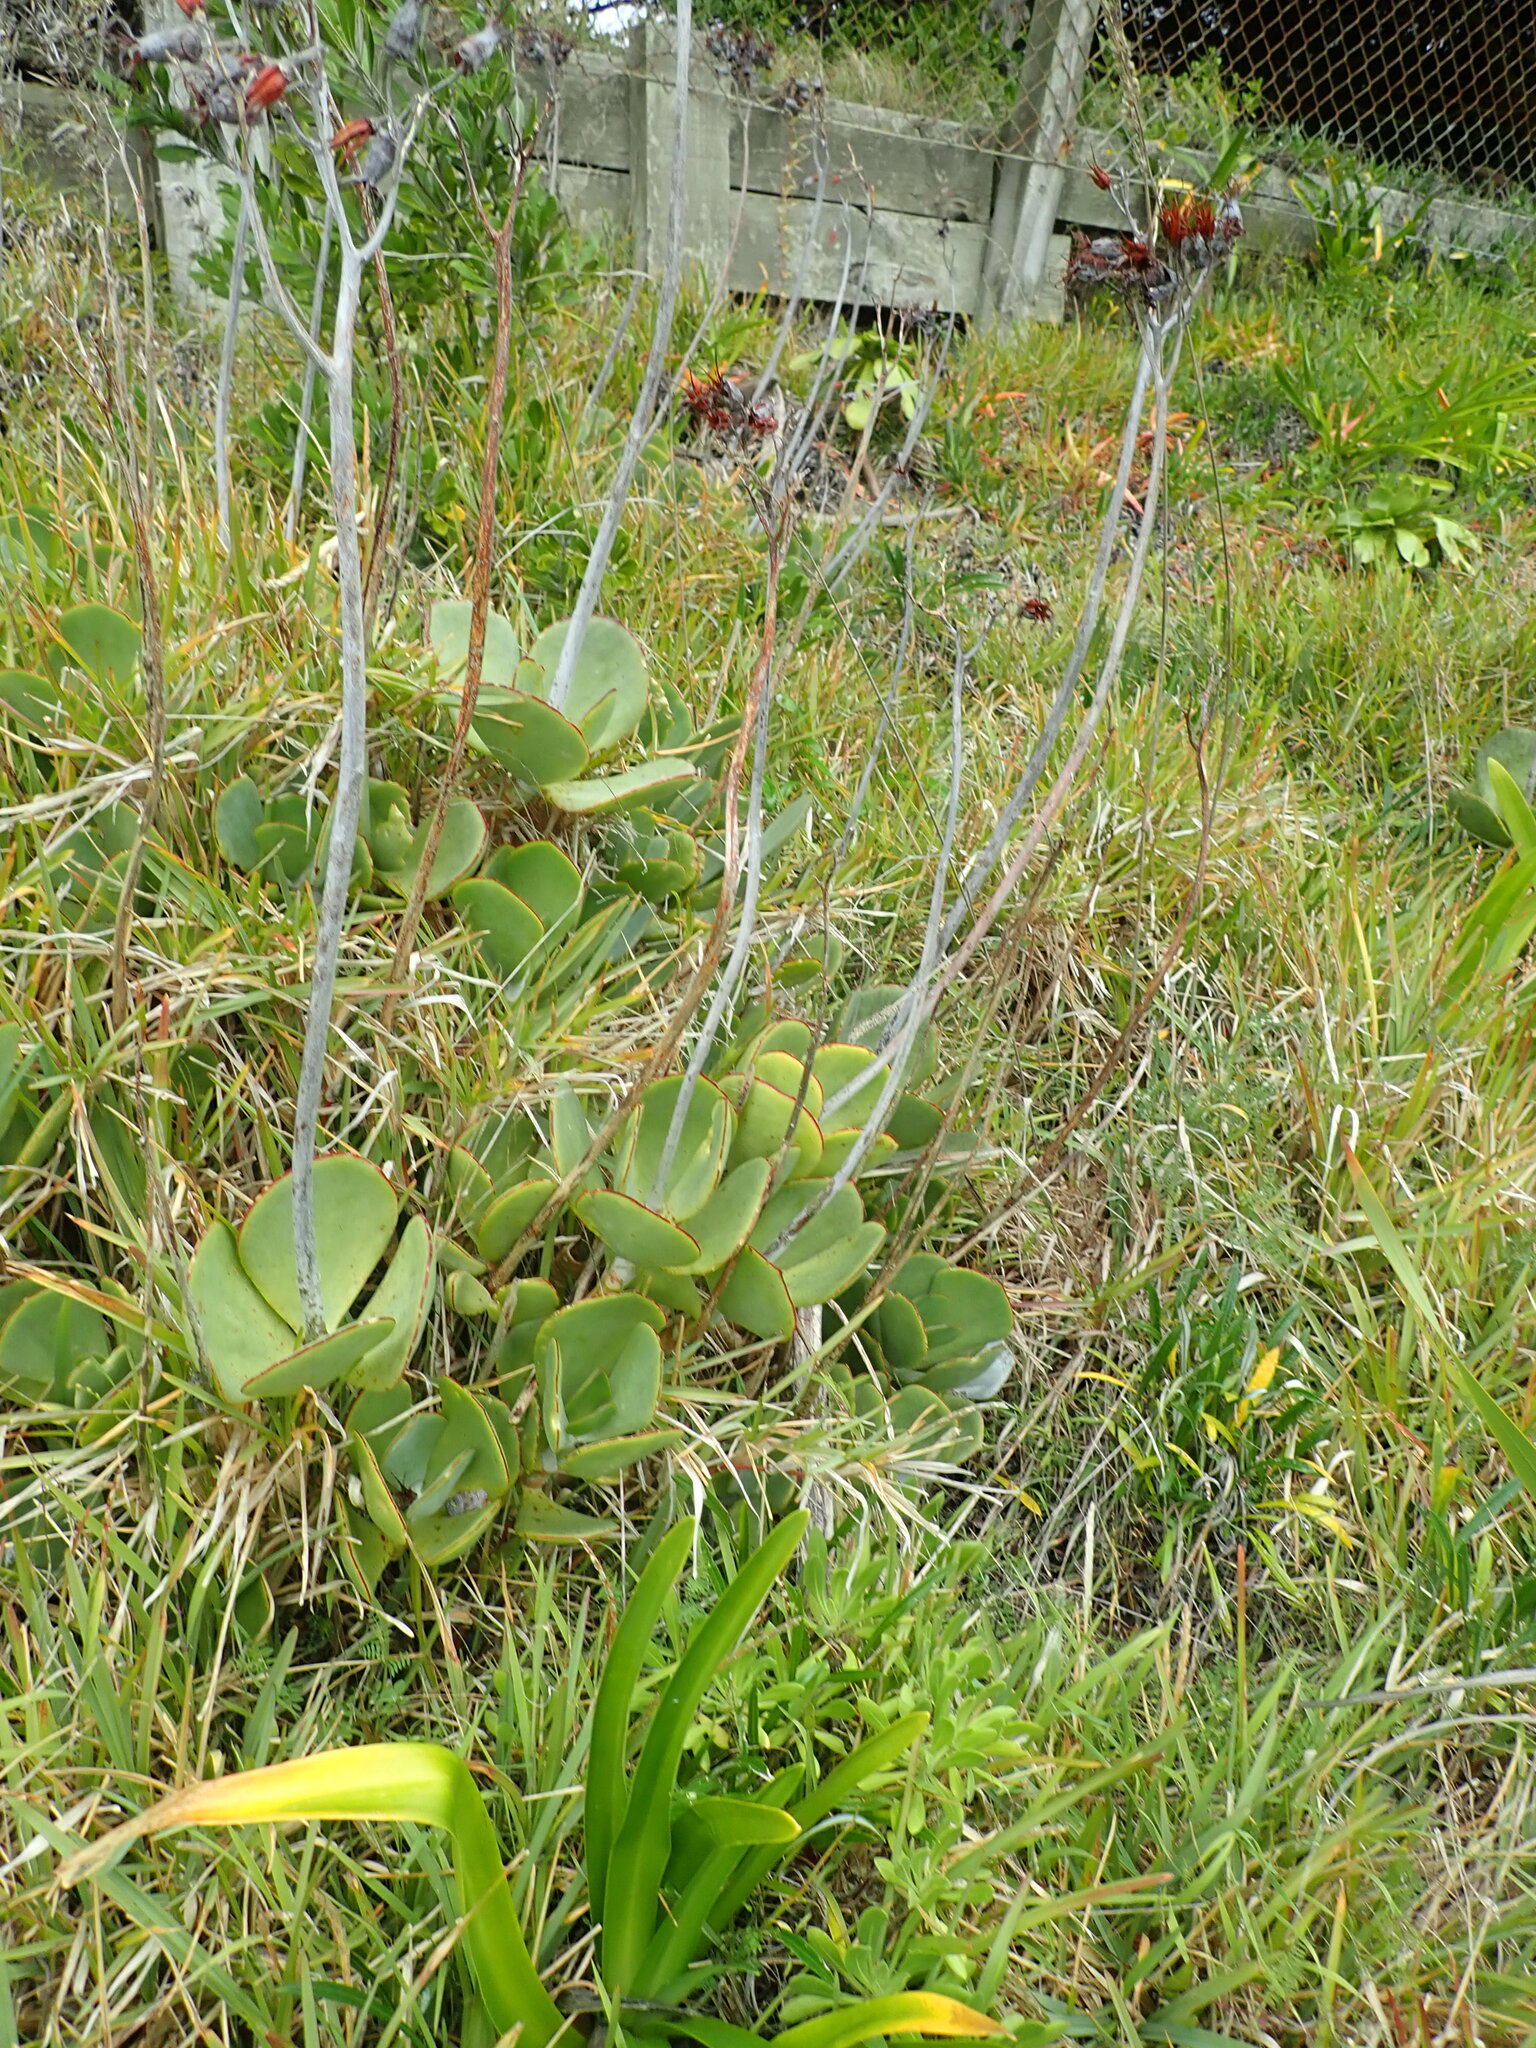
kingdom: Plantae
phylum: Tracheophyta
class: Magnoliopsida
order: Saxifragales
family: Crassulaceae
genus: Cotyledon
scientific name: Cotyledon orbiculata
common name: Pig's ear
